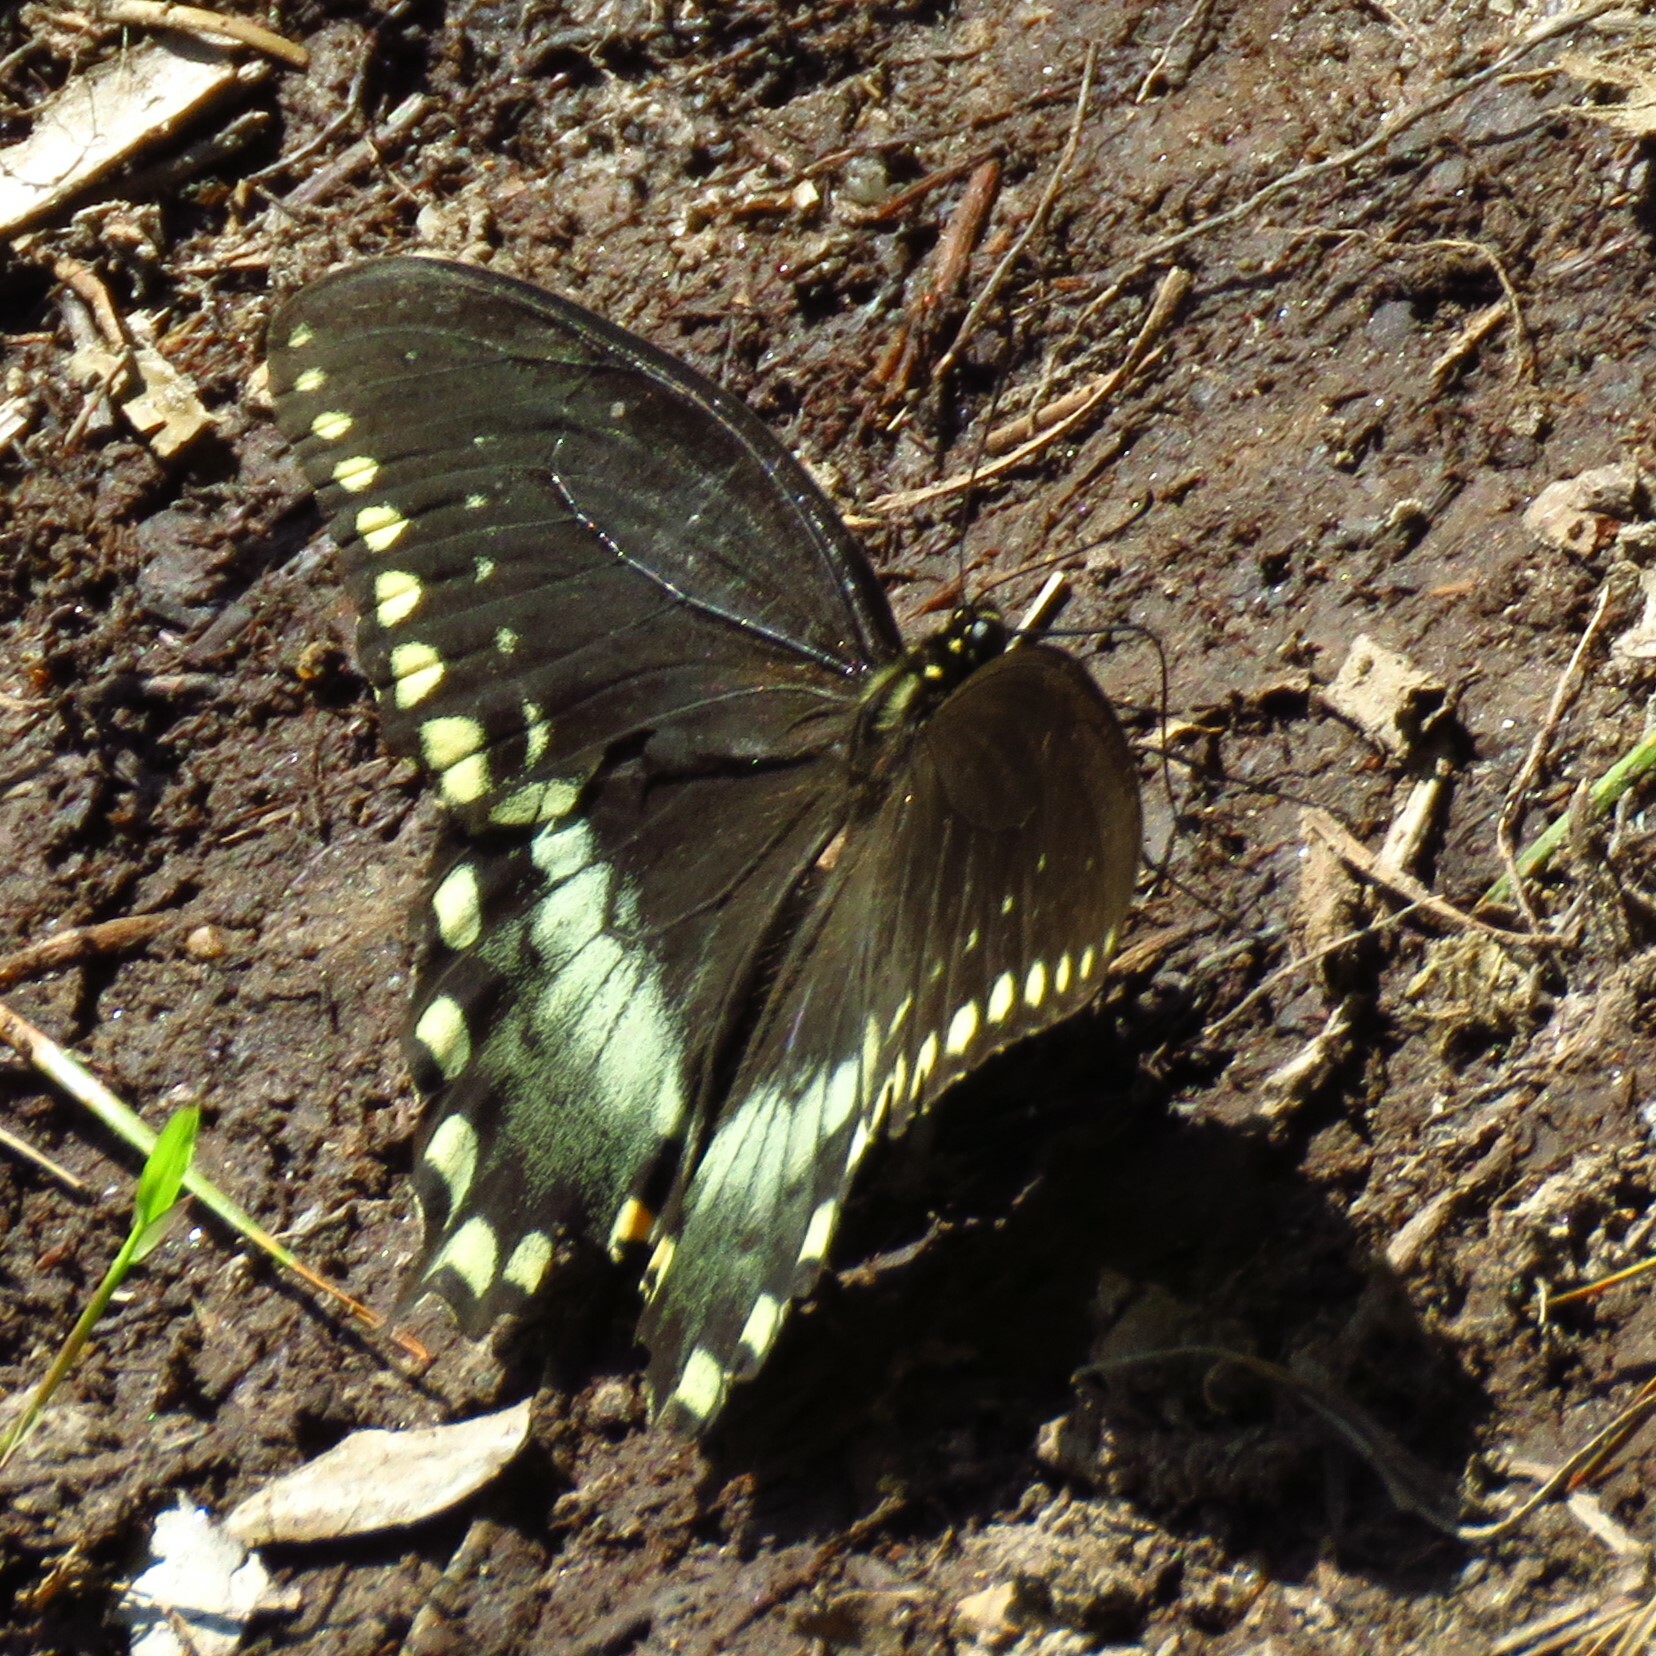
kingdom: Animalia
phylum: Arthropoda
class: Insecta
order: Lepidoptera
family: Papilionidae
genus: Papilio
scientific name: Papilio troilus
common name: Spicebush swallowtail
